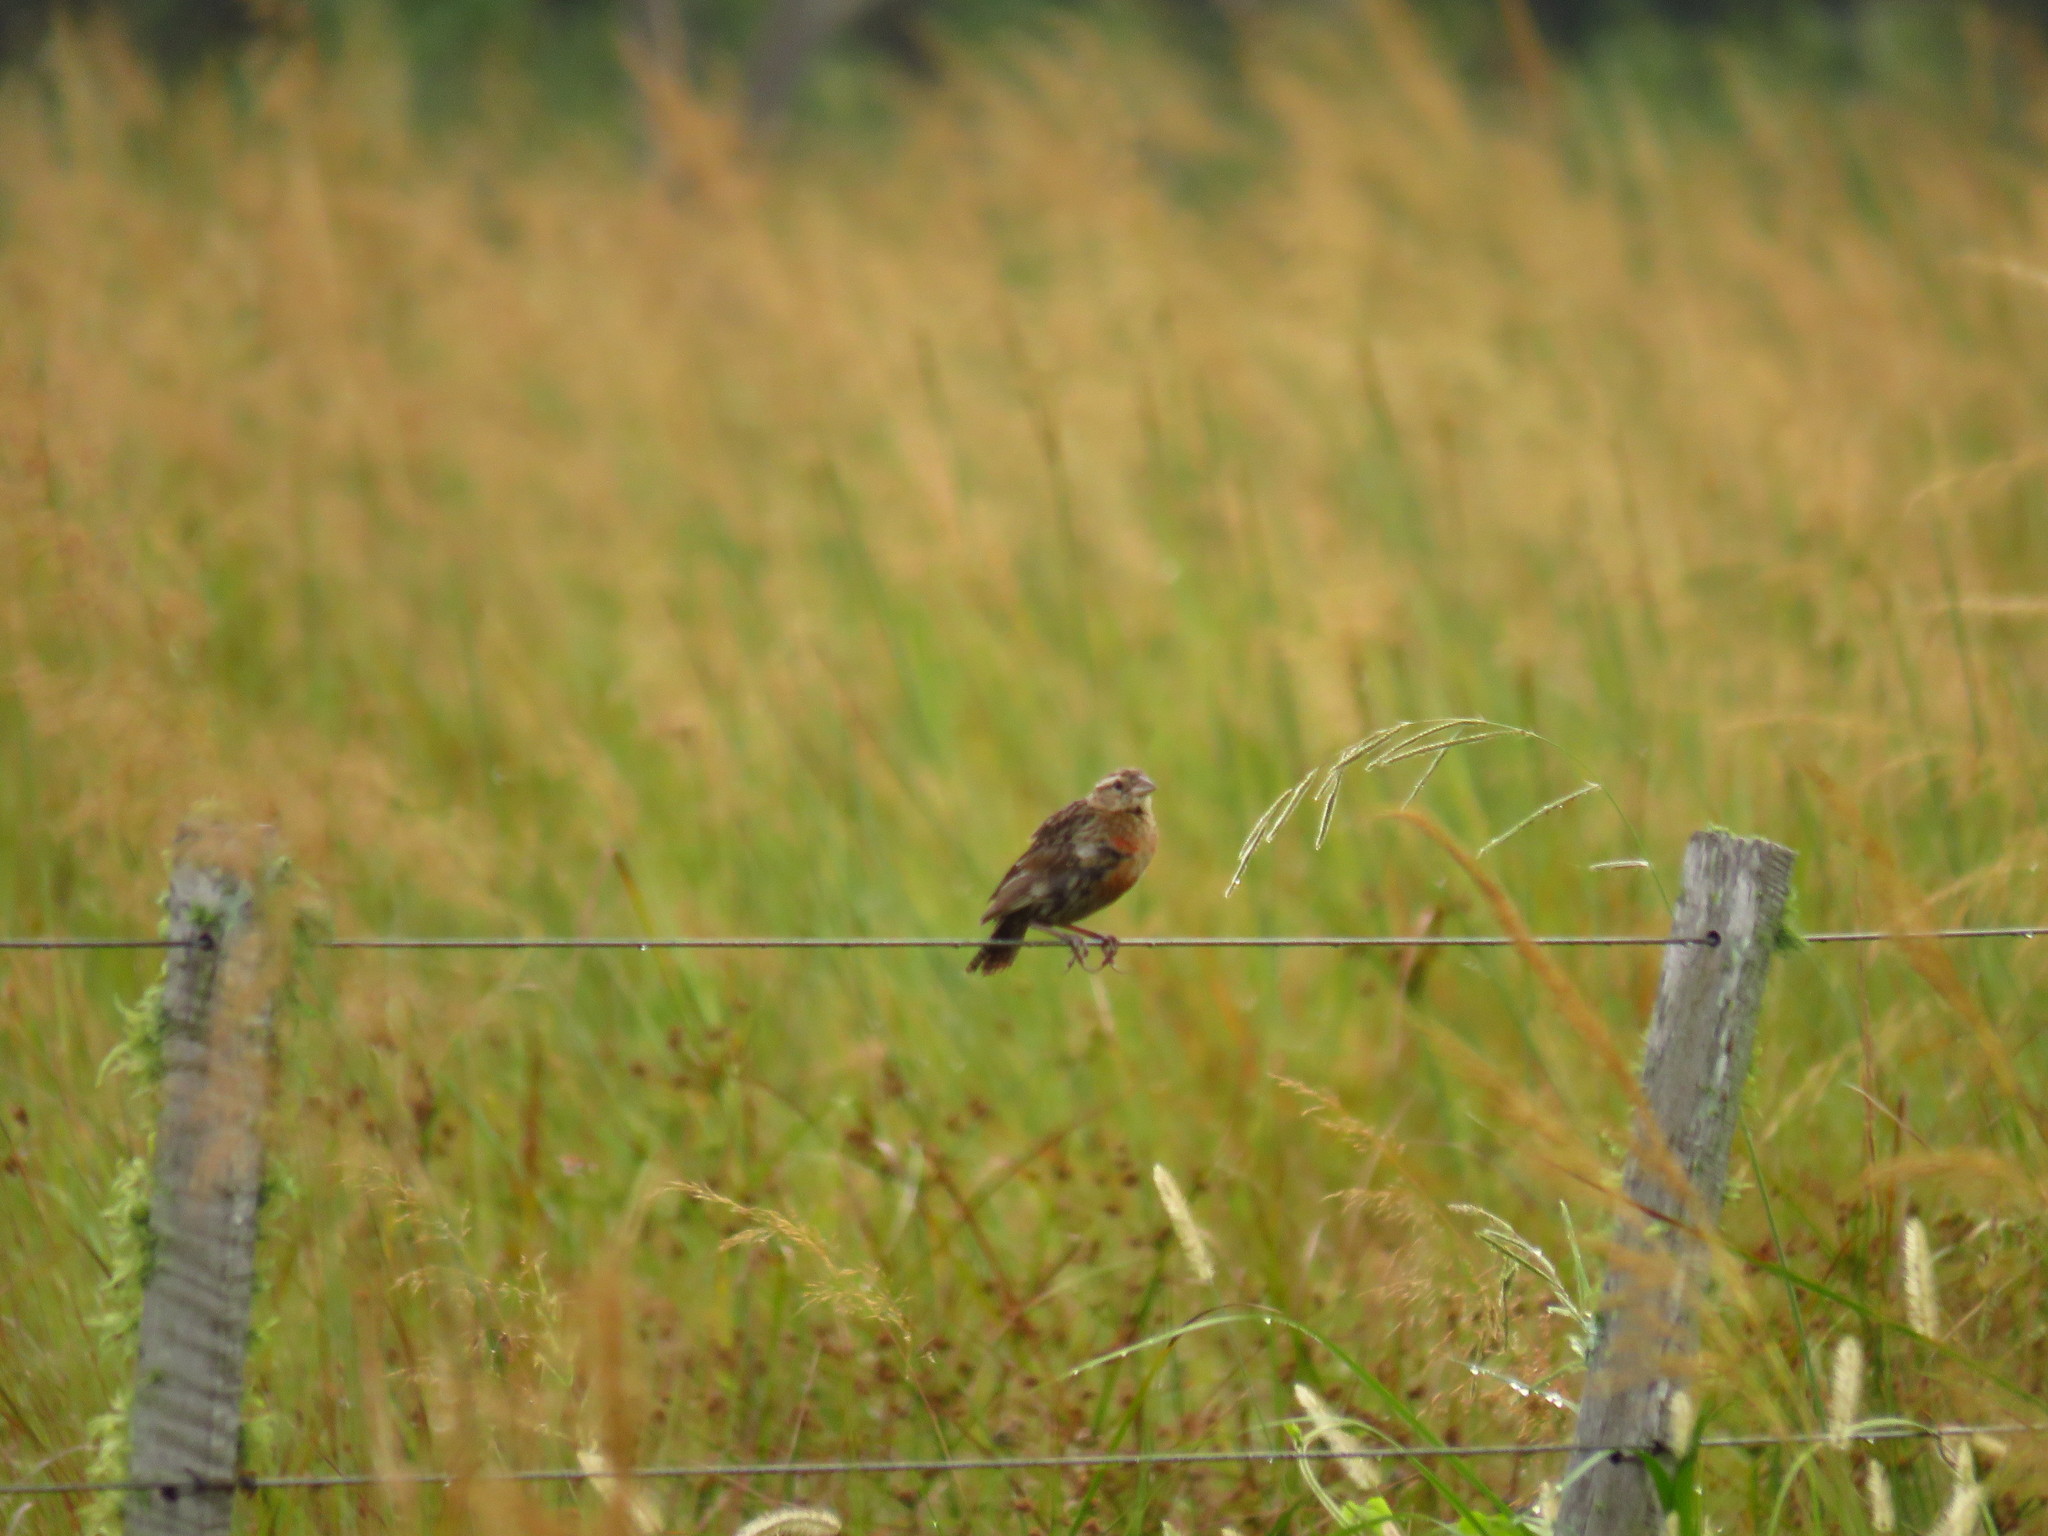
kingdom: Animalia
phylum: Chordata
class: Aves
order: Passeriformes
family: Icteridae
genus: Sturnella
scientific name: Sturnella superciliaris
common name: White-browed blackbird
